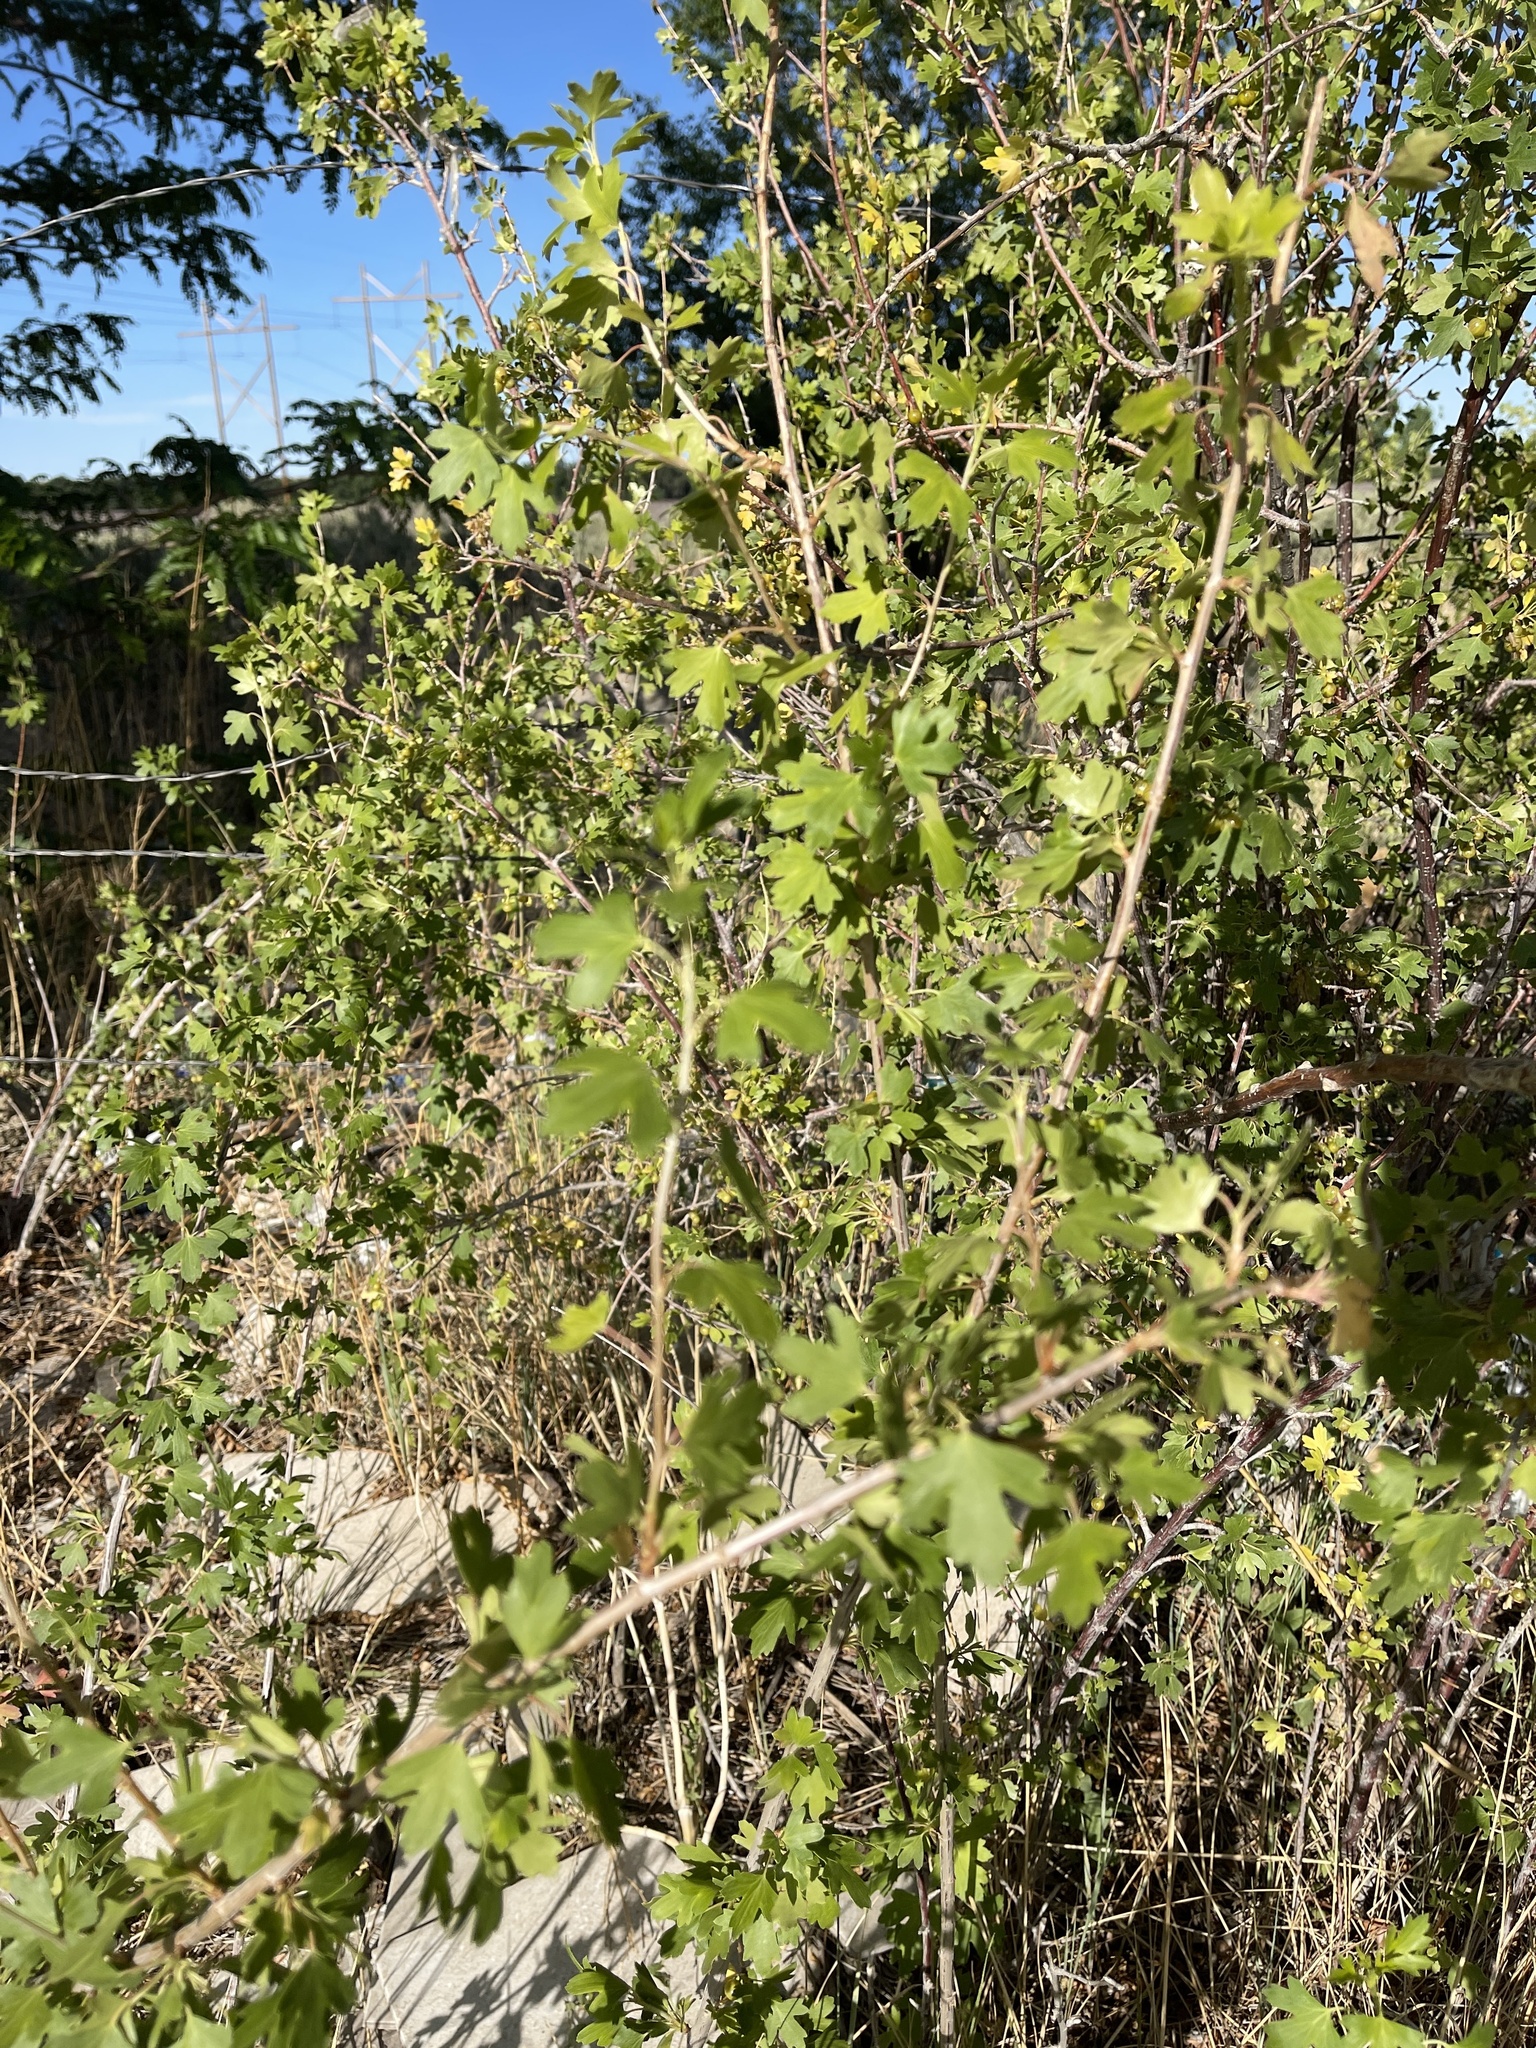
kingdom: Plantae
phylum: Tracheophyta
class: Magnoliopsida
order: Saxifragales
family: Grossulariaceae
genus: Ribes
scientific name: Ribes aureum
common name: Golden currant
